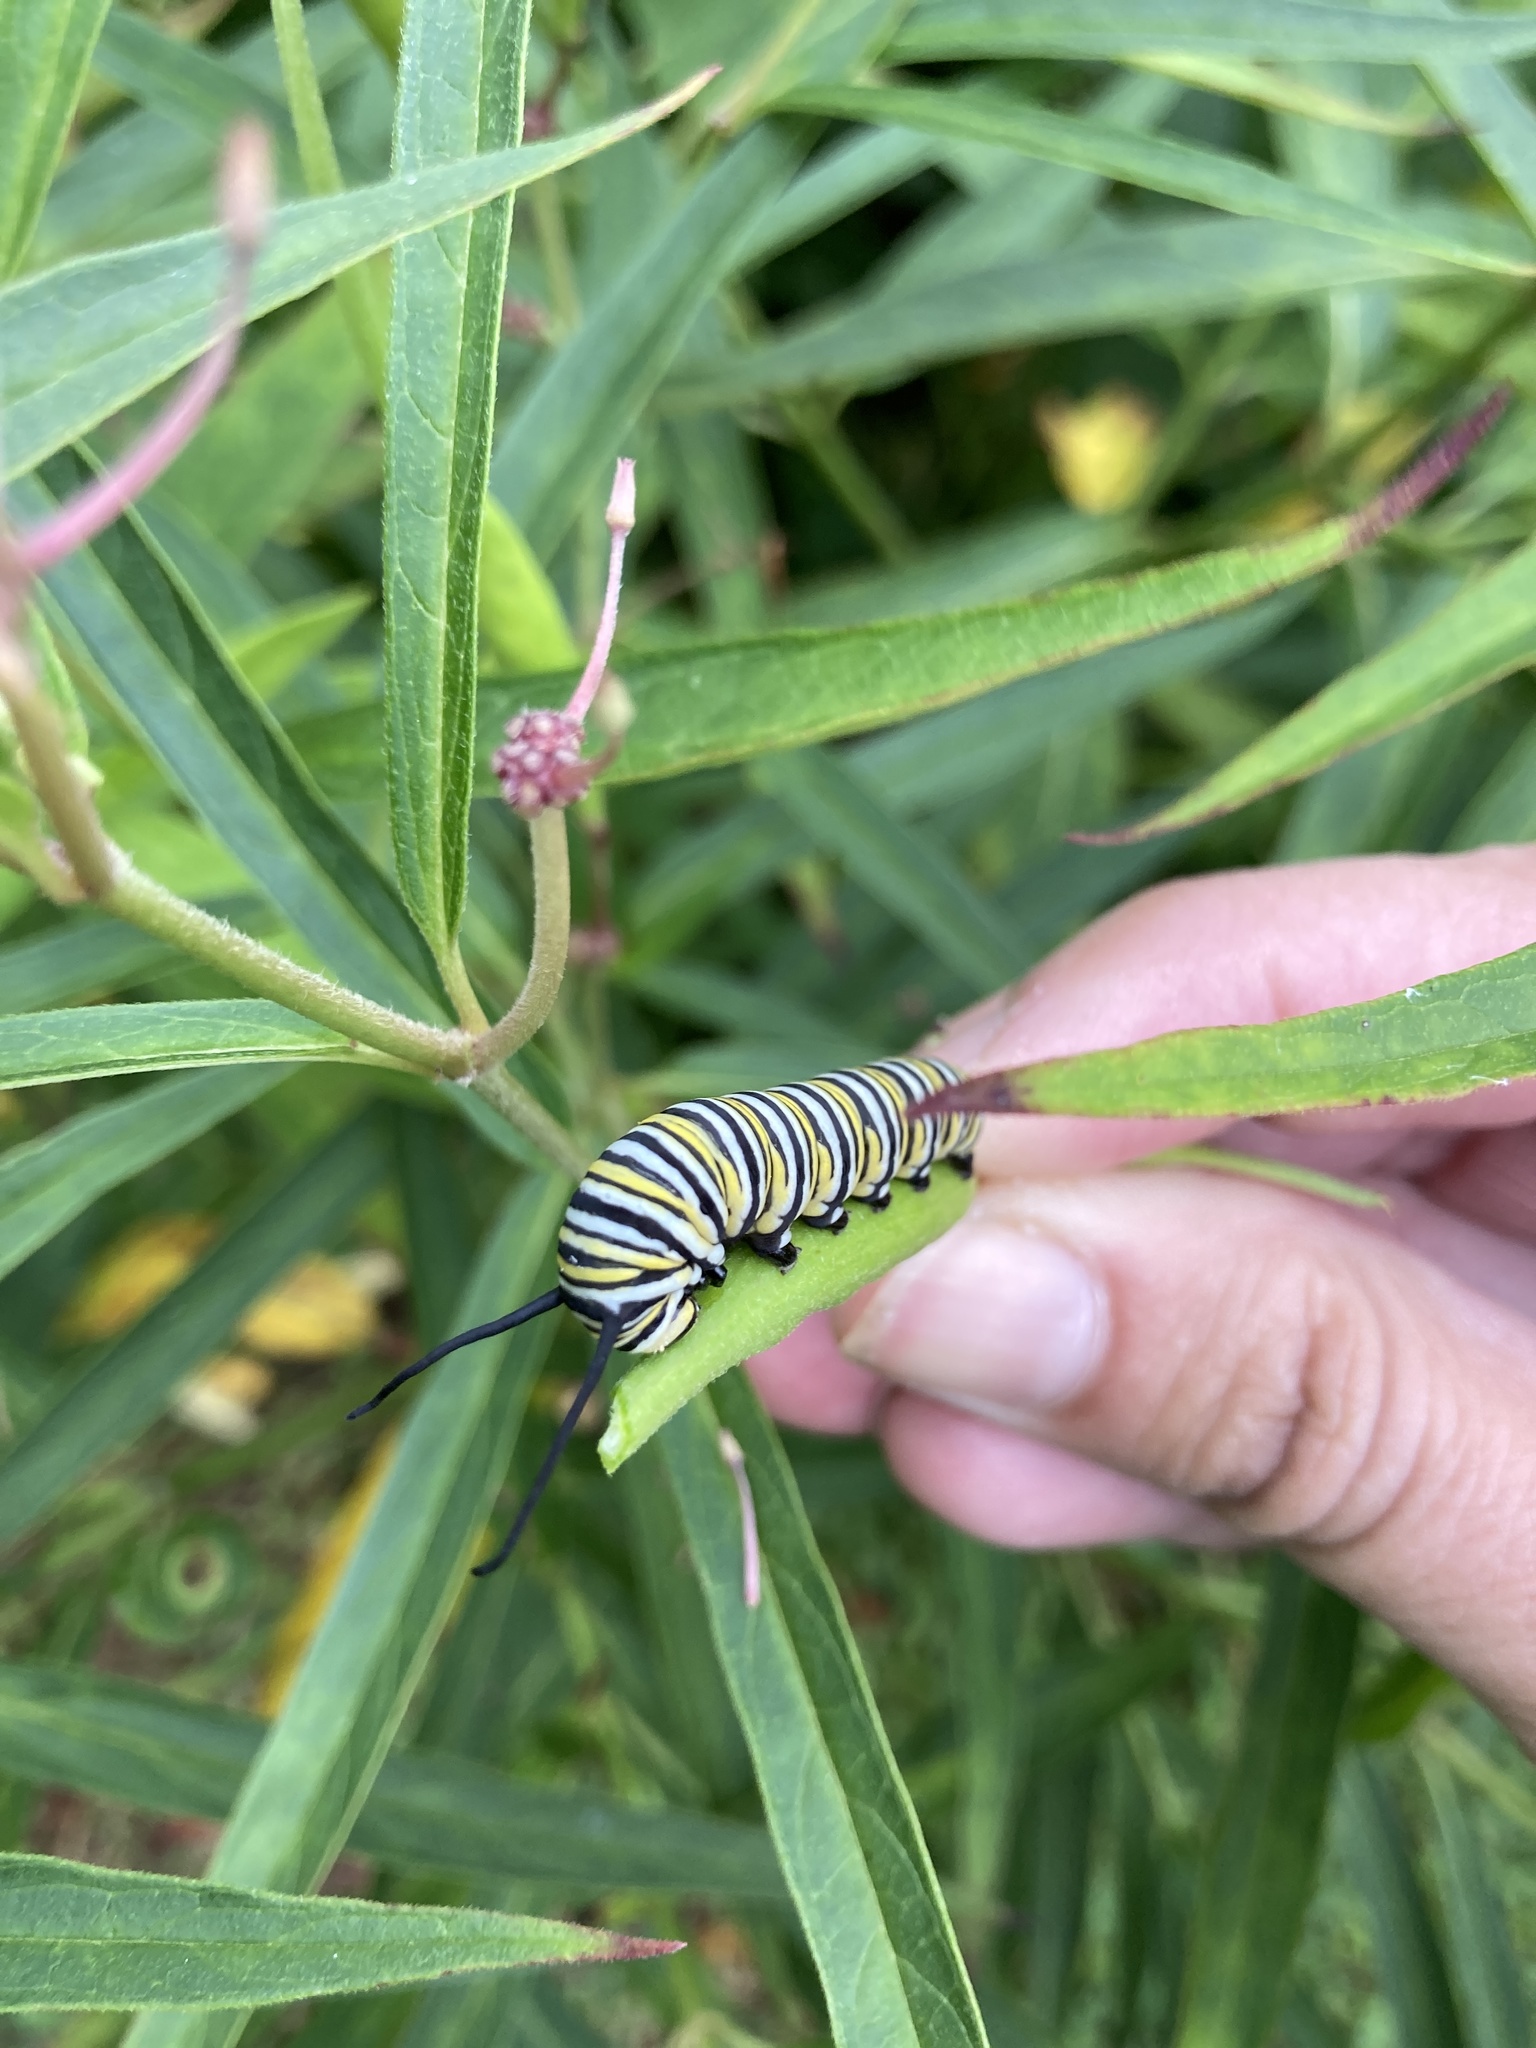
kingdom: Animalia
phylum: Arthropoda
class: Insecta
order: Lepidoptera
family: Nymphalidae
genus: Danaus
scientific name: Danaus plexippus
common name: Monarch
